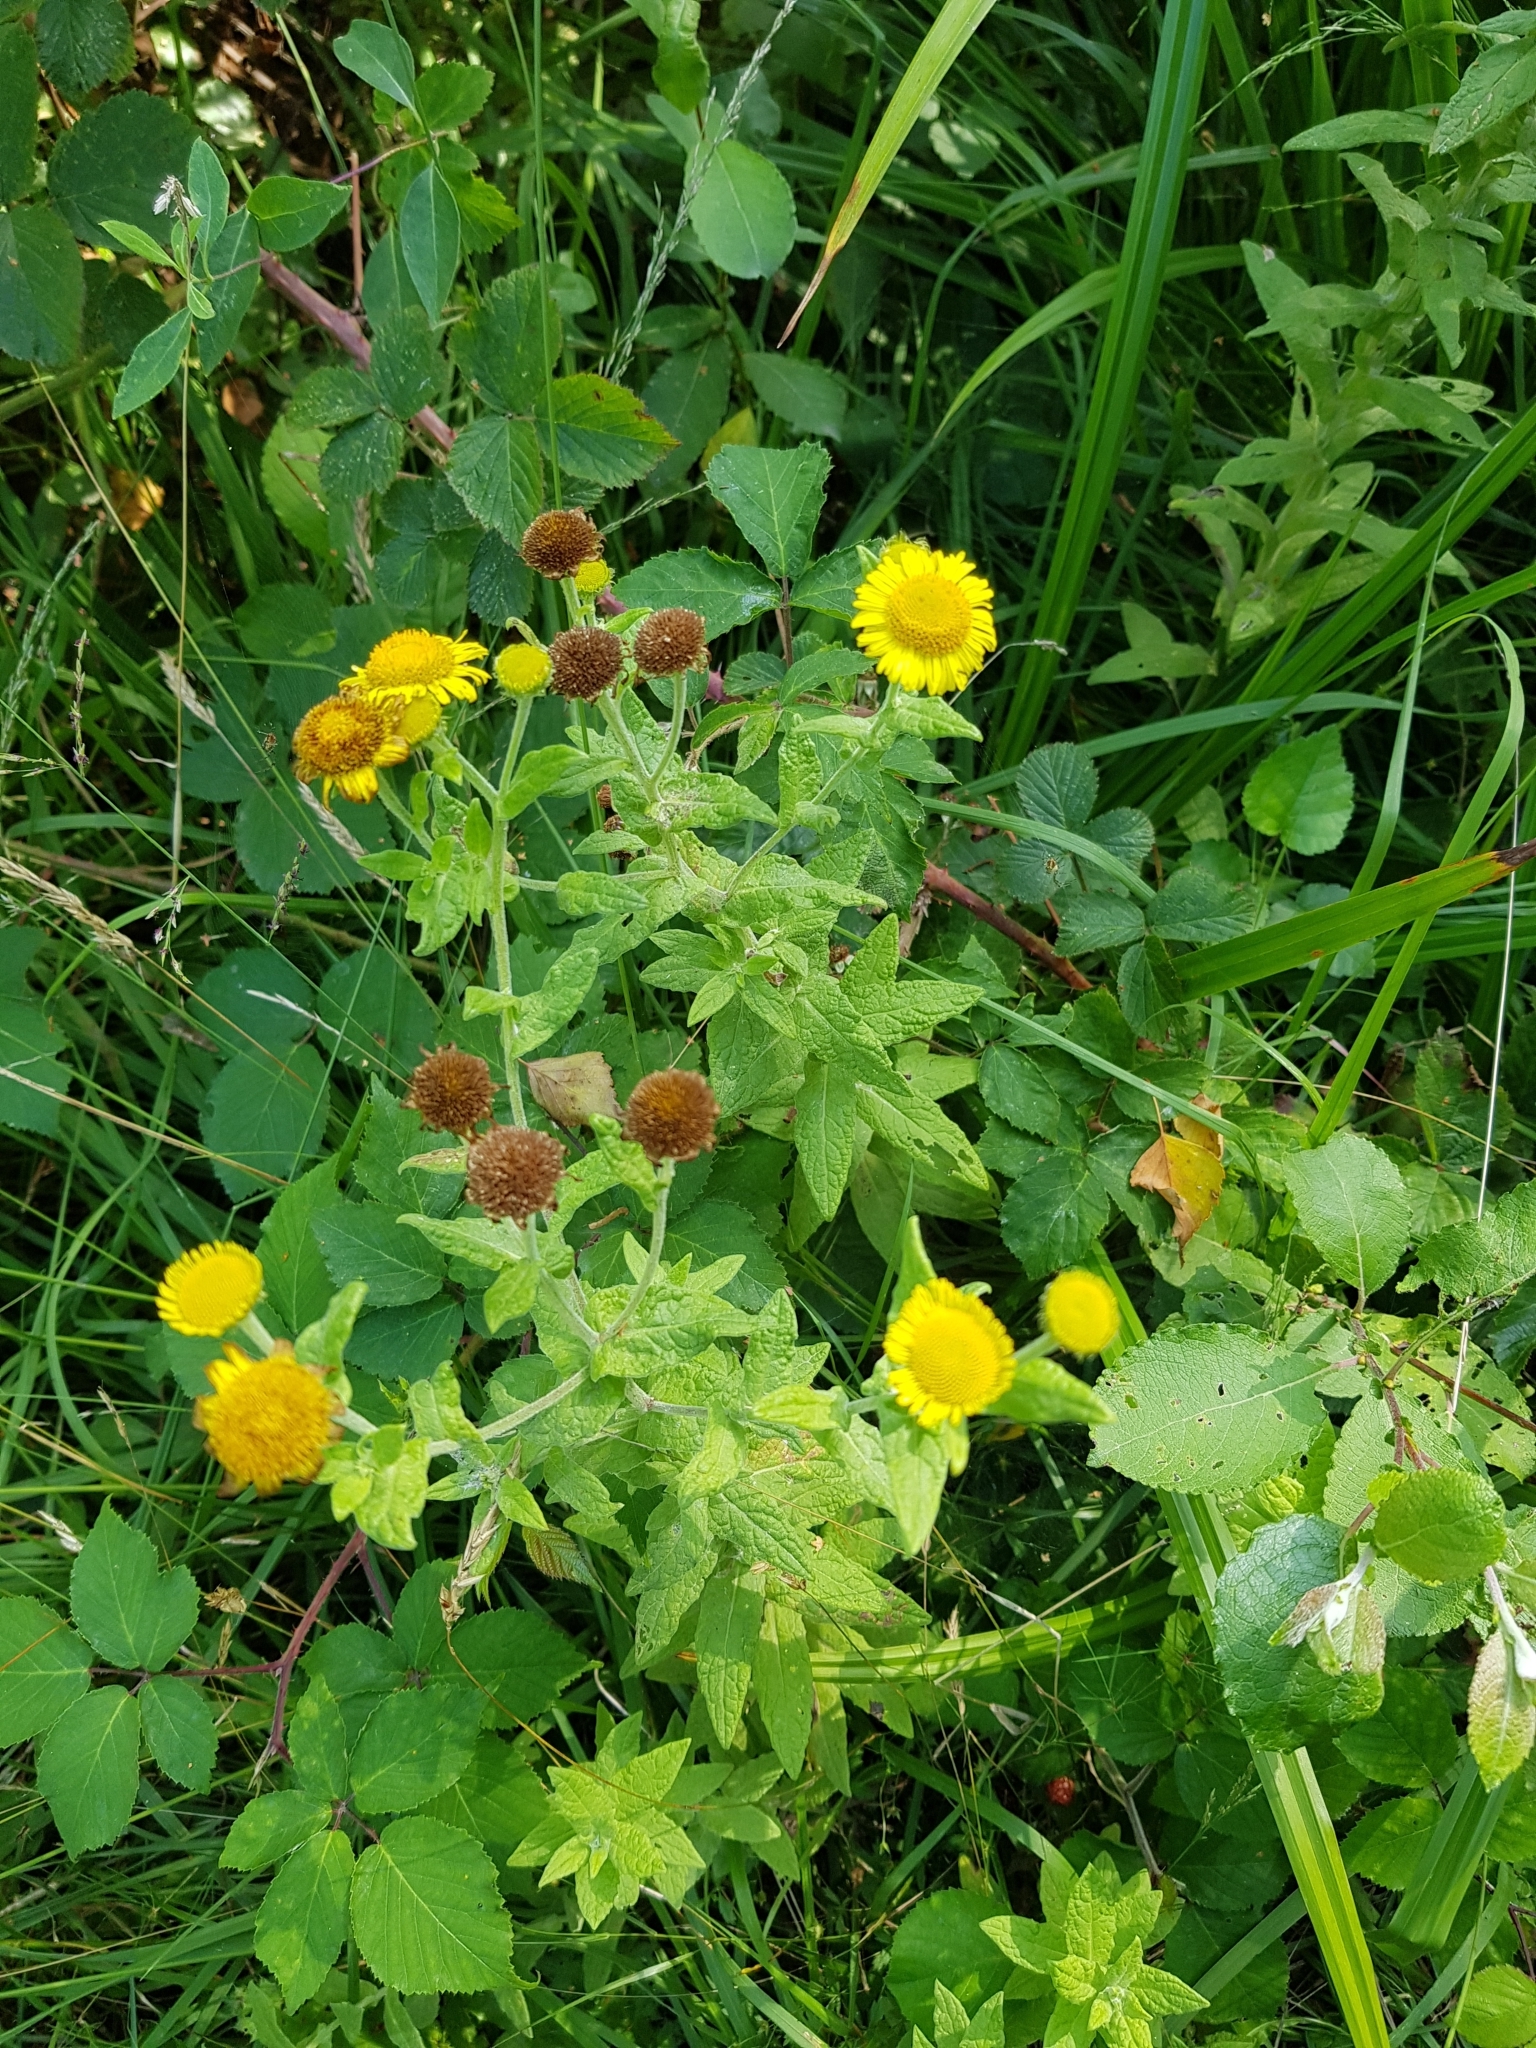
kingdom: Plantae
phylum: Tracheophyta
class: Magnoliopsida
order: Asterales
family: Asteraceae
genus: Pulicaria
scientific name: Pulicaria dysenterica
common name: Common fleabane
